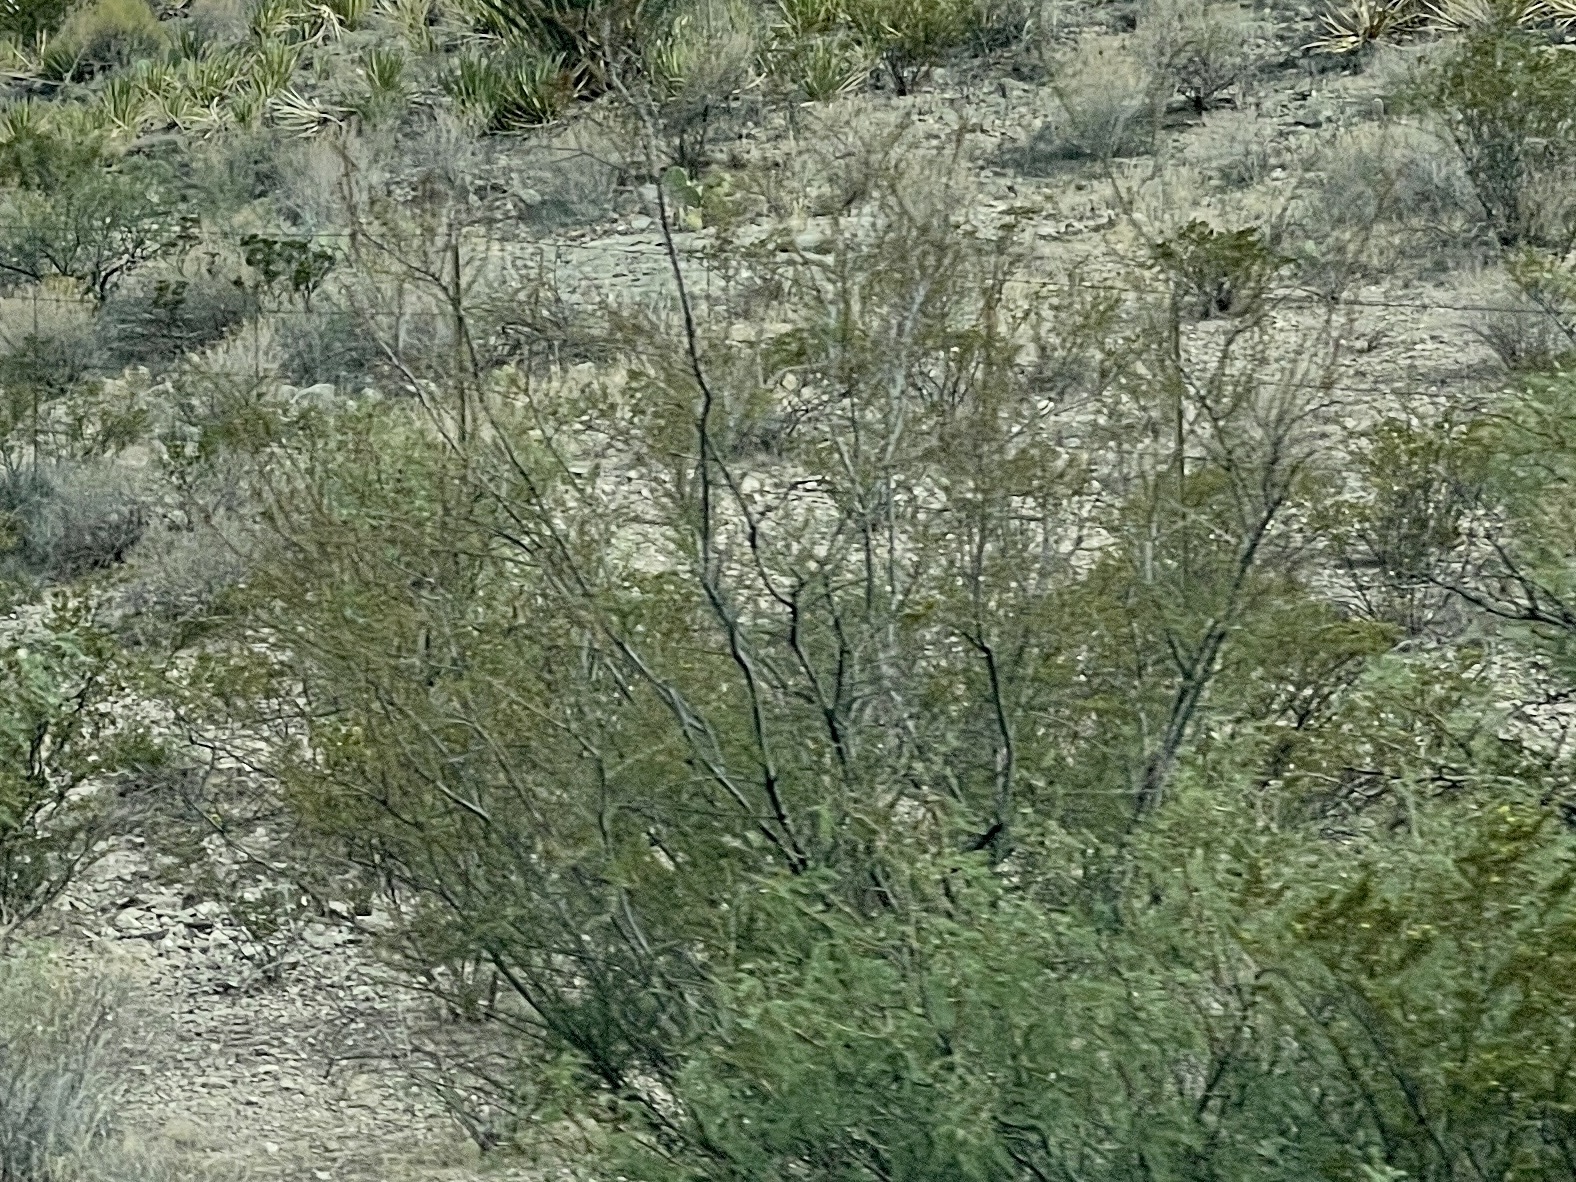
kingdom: Plantae
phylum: Tracheophyta
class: Magnoliopsida
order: Zygophyllales
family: Zygophyllaceae
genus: Larrea
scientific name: Larrea tridentata
